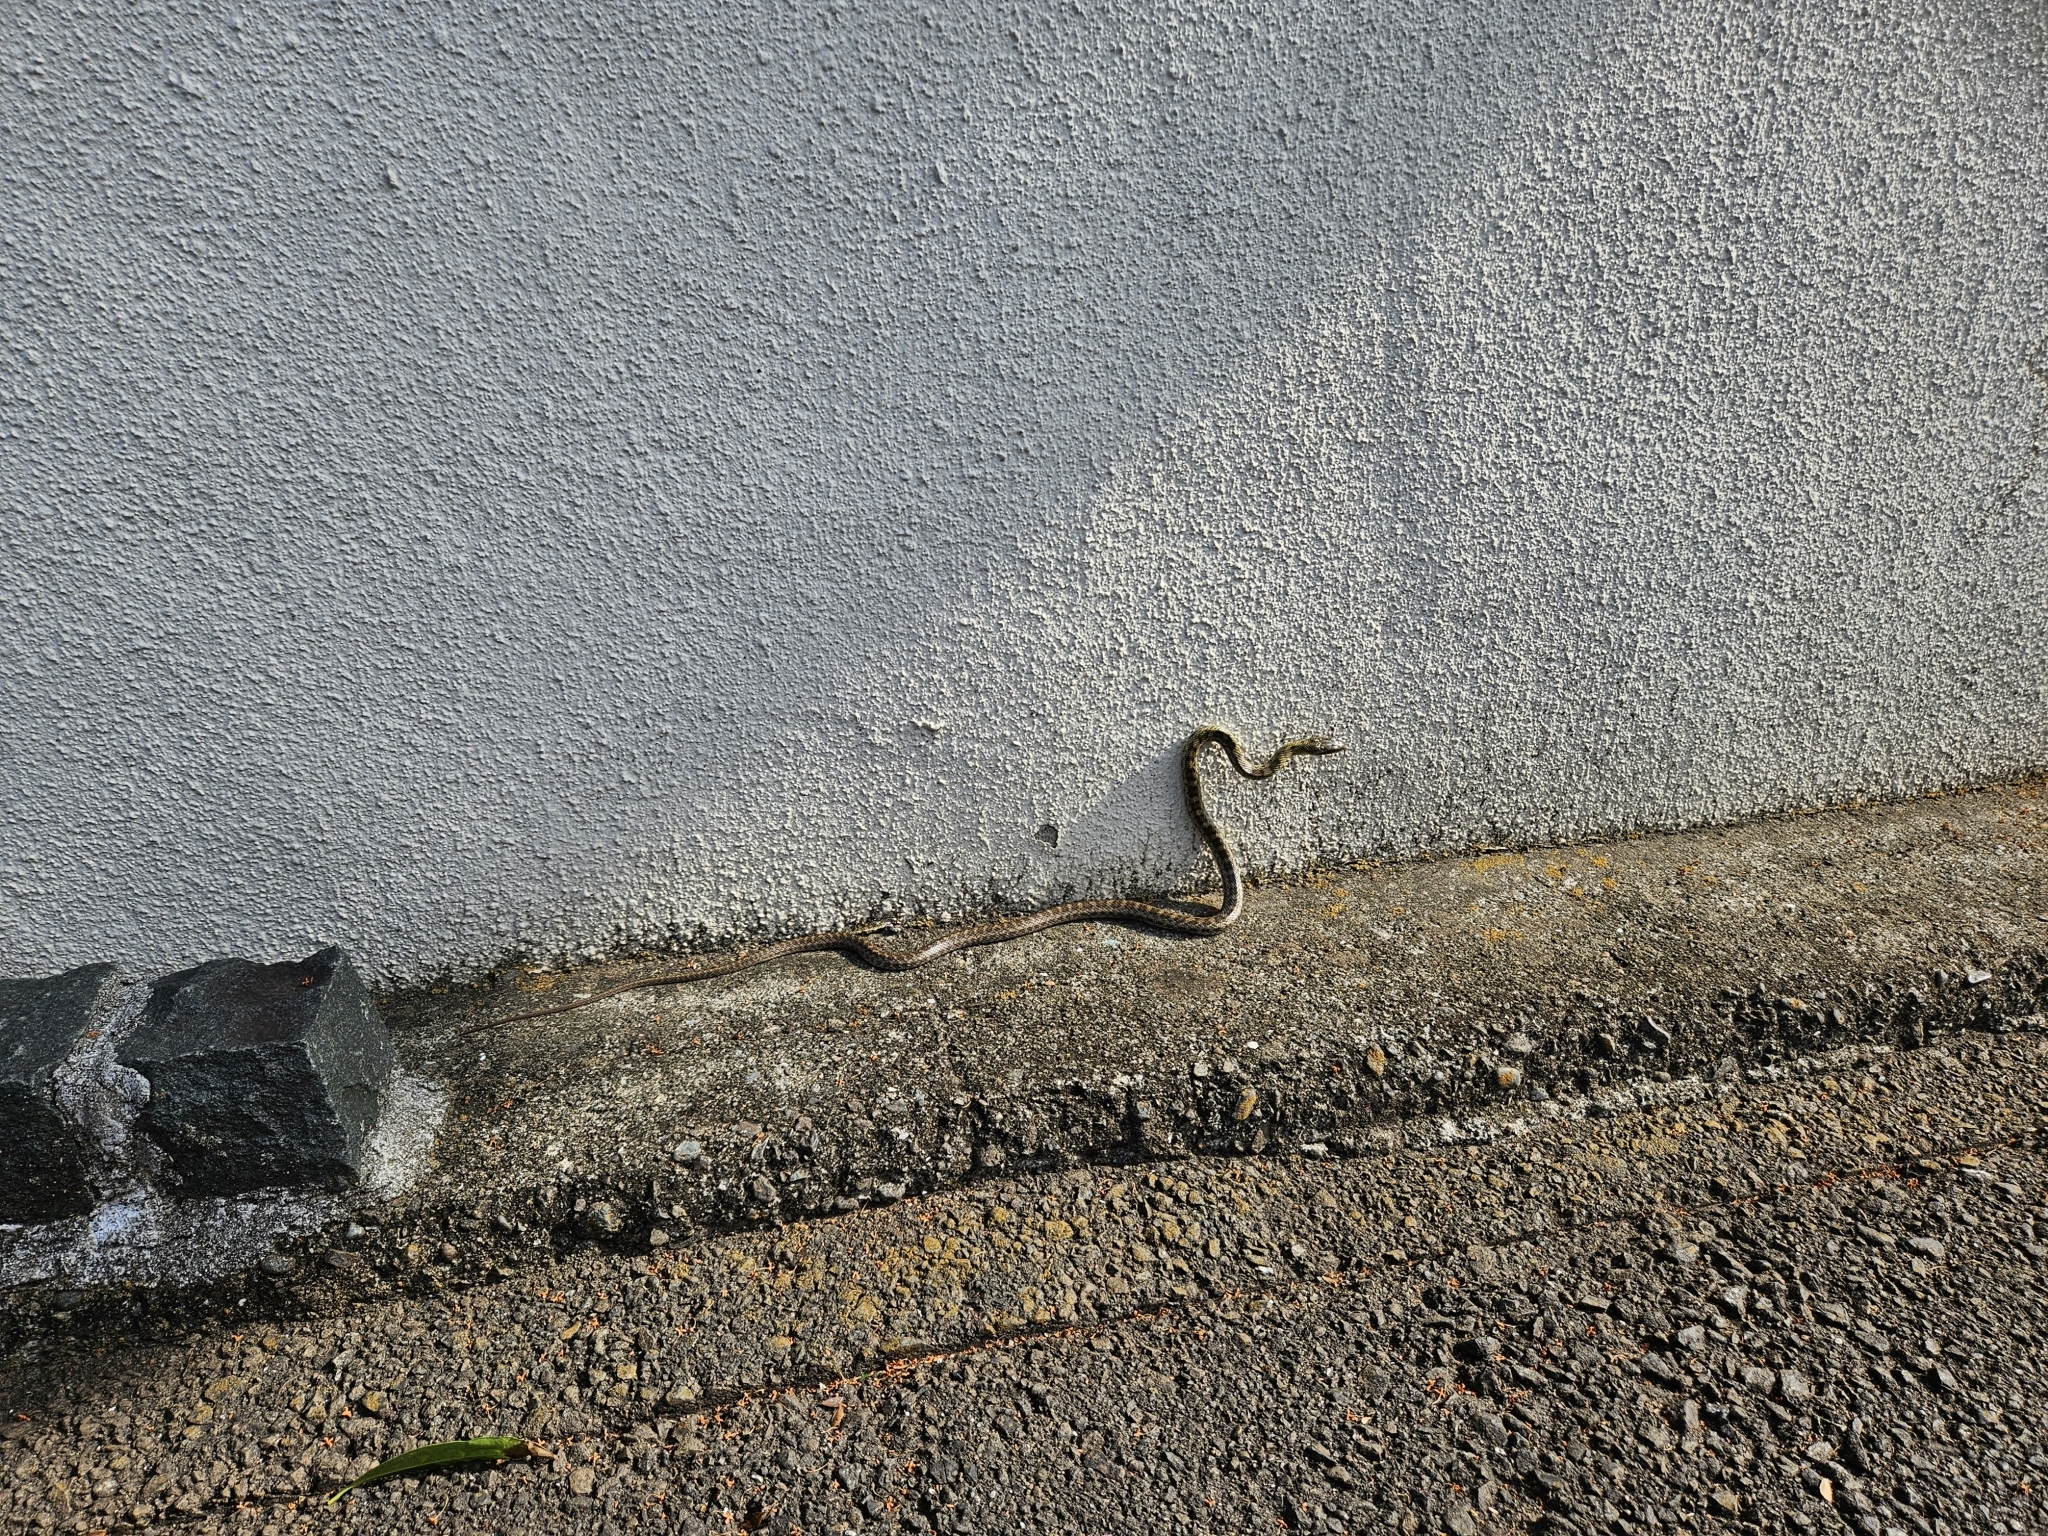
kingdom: Animalia
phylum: Chordata
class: Squamata
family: Colubridae
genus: Elaphe
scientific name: Elaphe climacophora
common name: Japanese ratsnake
